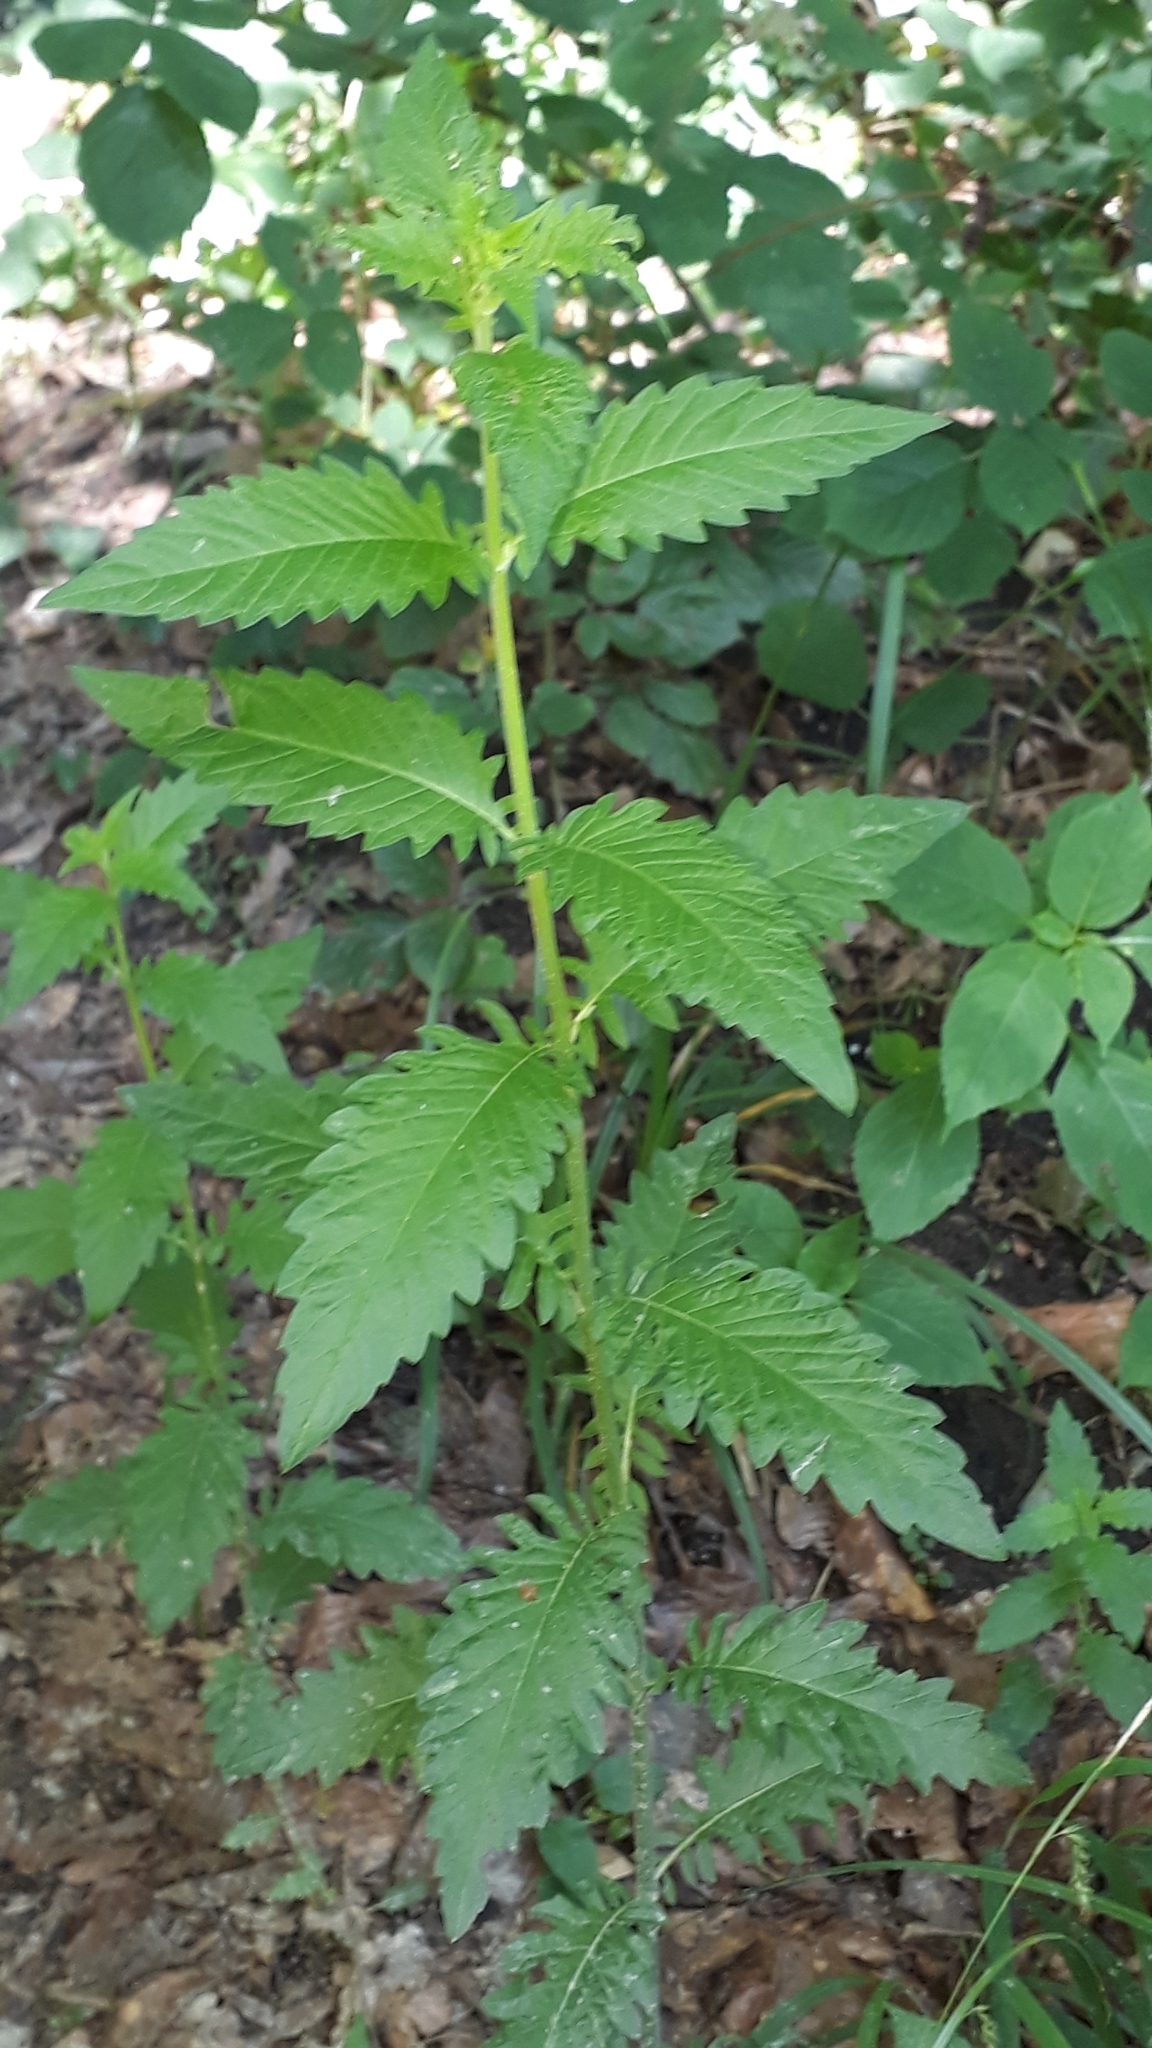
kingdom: Plantae
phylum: Tracheophyta
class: Magnoliopsida
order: Lamiales
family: Lamiaceae
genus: Lycopus
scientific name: Lycopus europaeus
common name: European bugleweed
